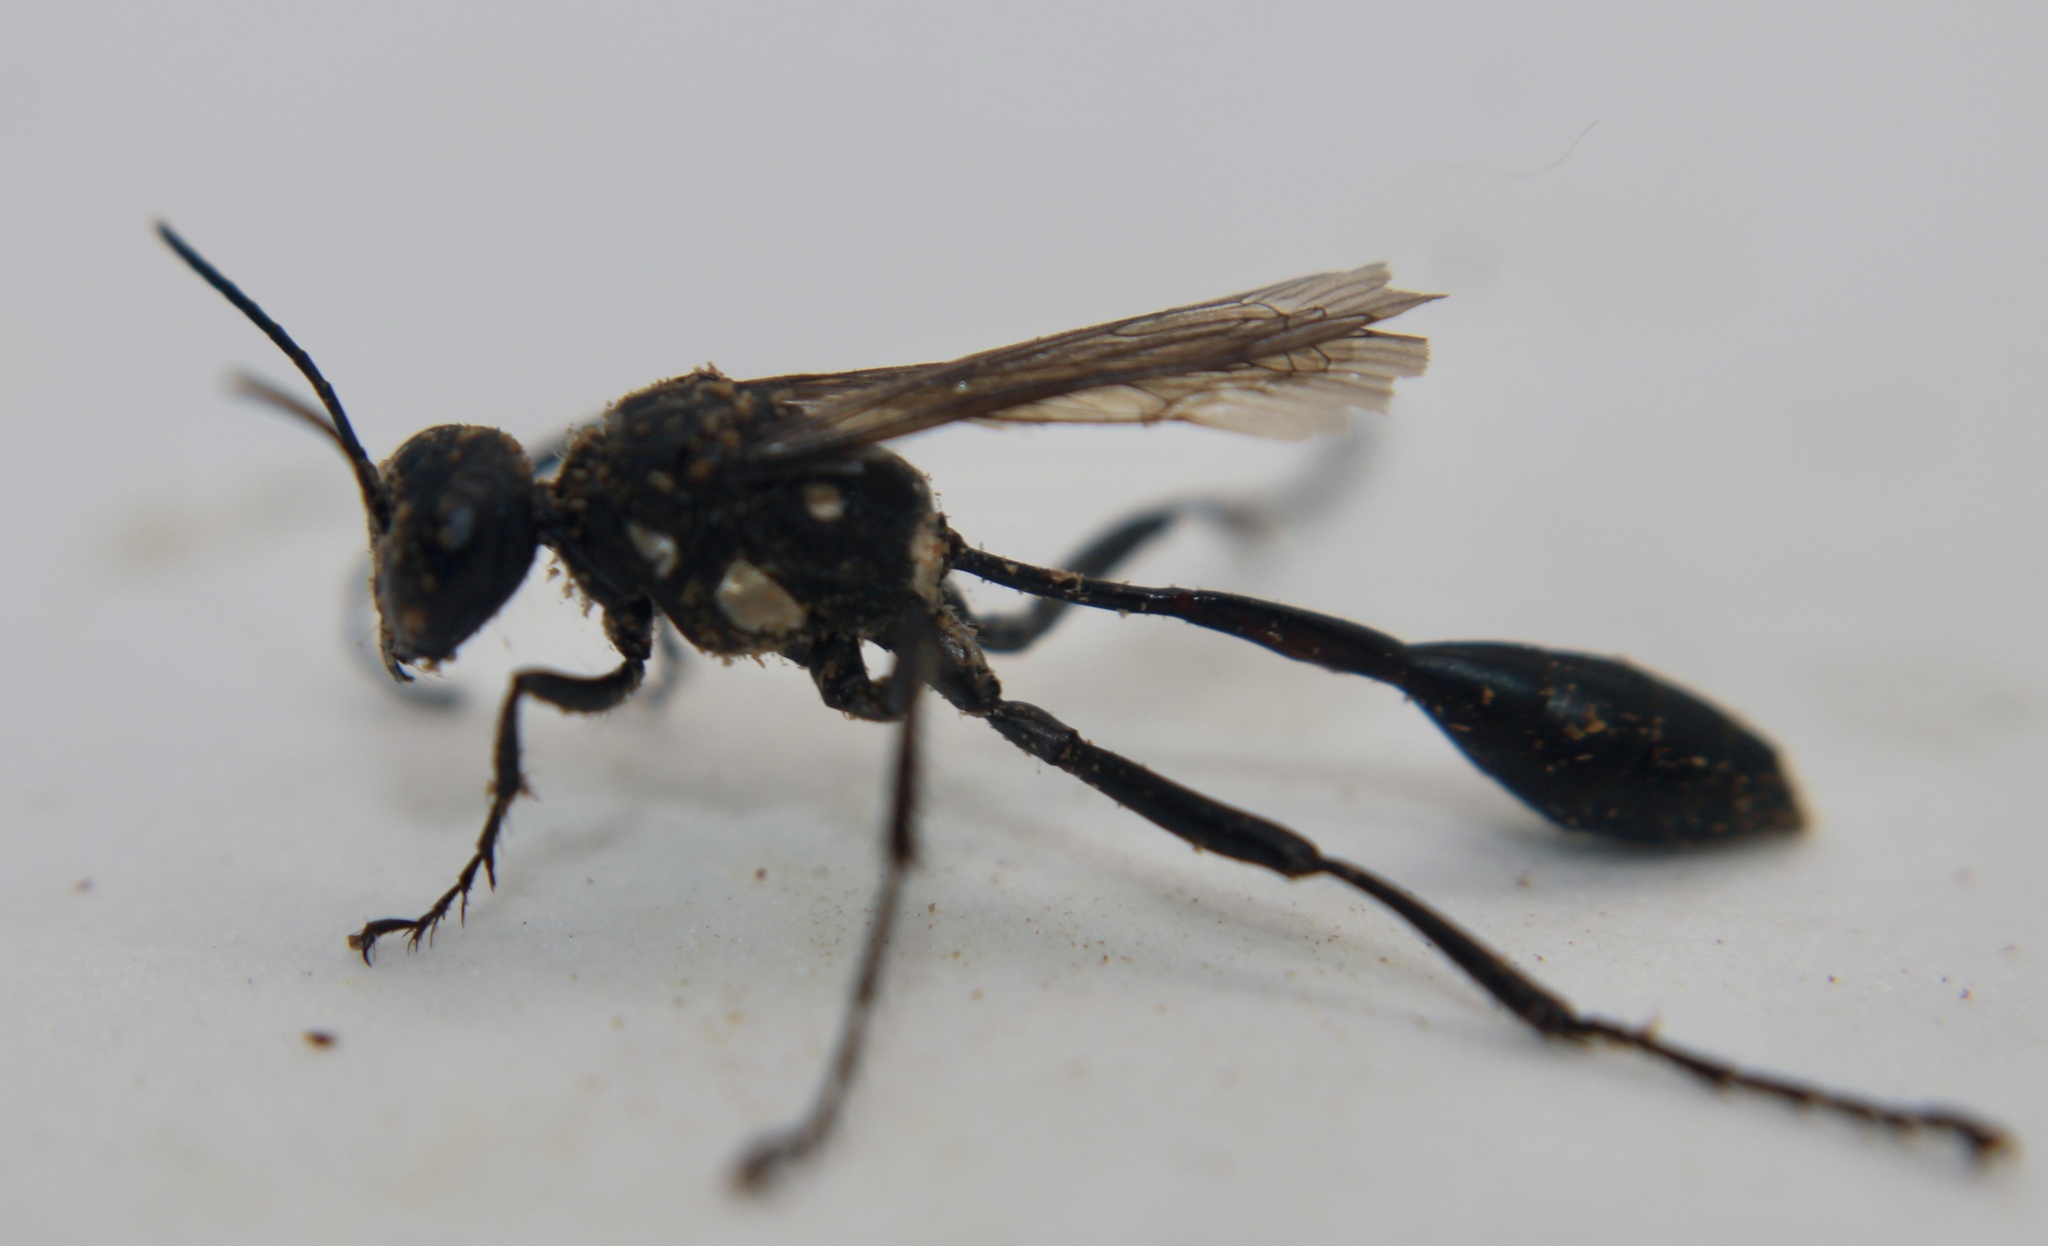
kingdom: Animalia
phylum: Arthropoda
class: Insecta
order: Hymenoptera
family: Sphecidae
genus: Eremnophila
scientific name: Eremnophila aureonotata
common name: Gold-marked thread-waisted wasp
